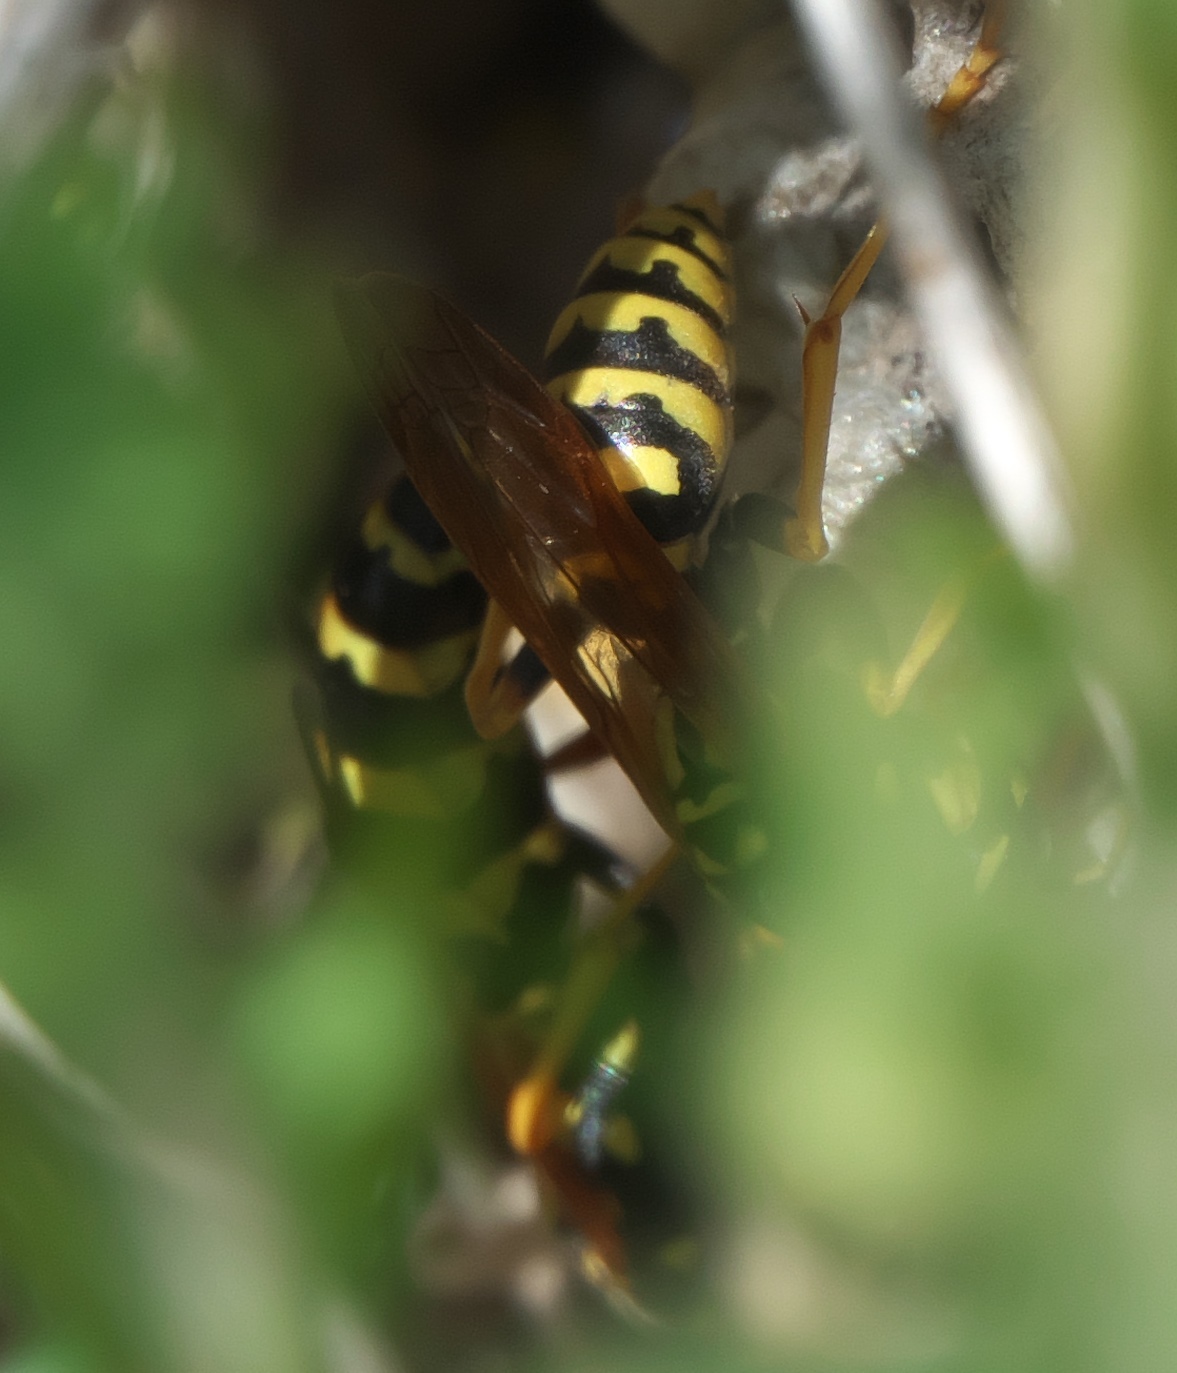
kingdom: Animalia
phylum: Arthropoda
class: Insecta
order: Hymenoptera
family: Eumenidae
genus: Polistes
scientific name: Polistes dominula
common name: Paper wasp
